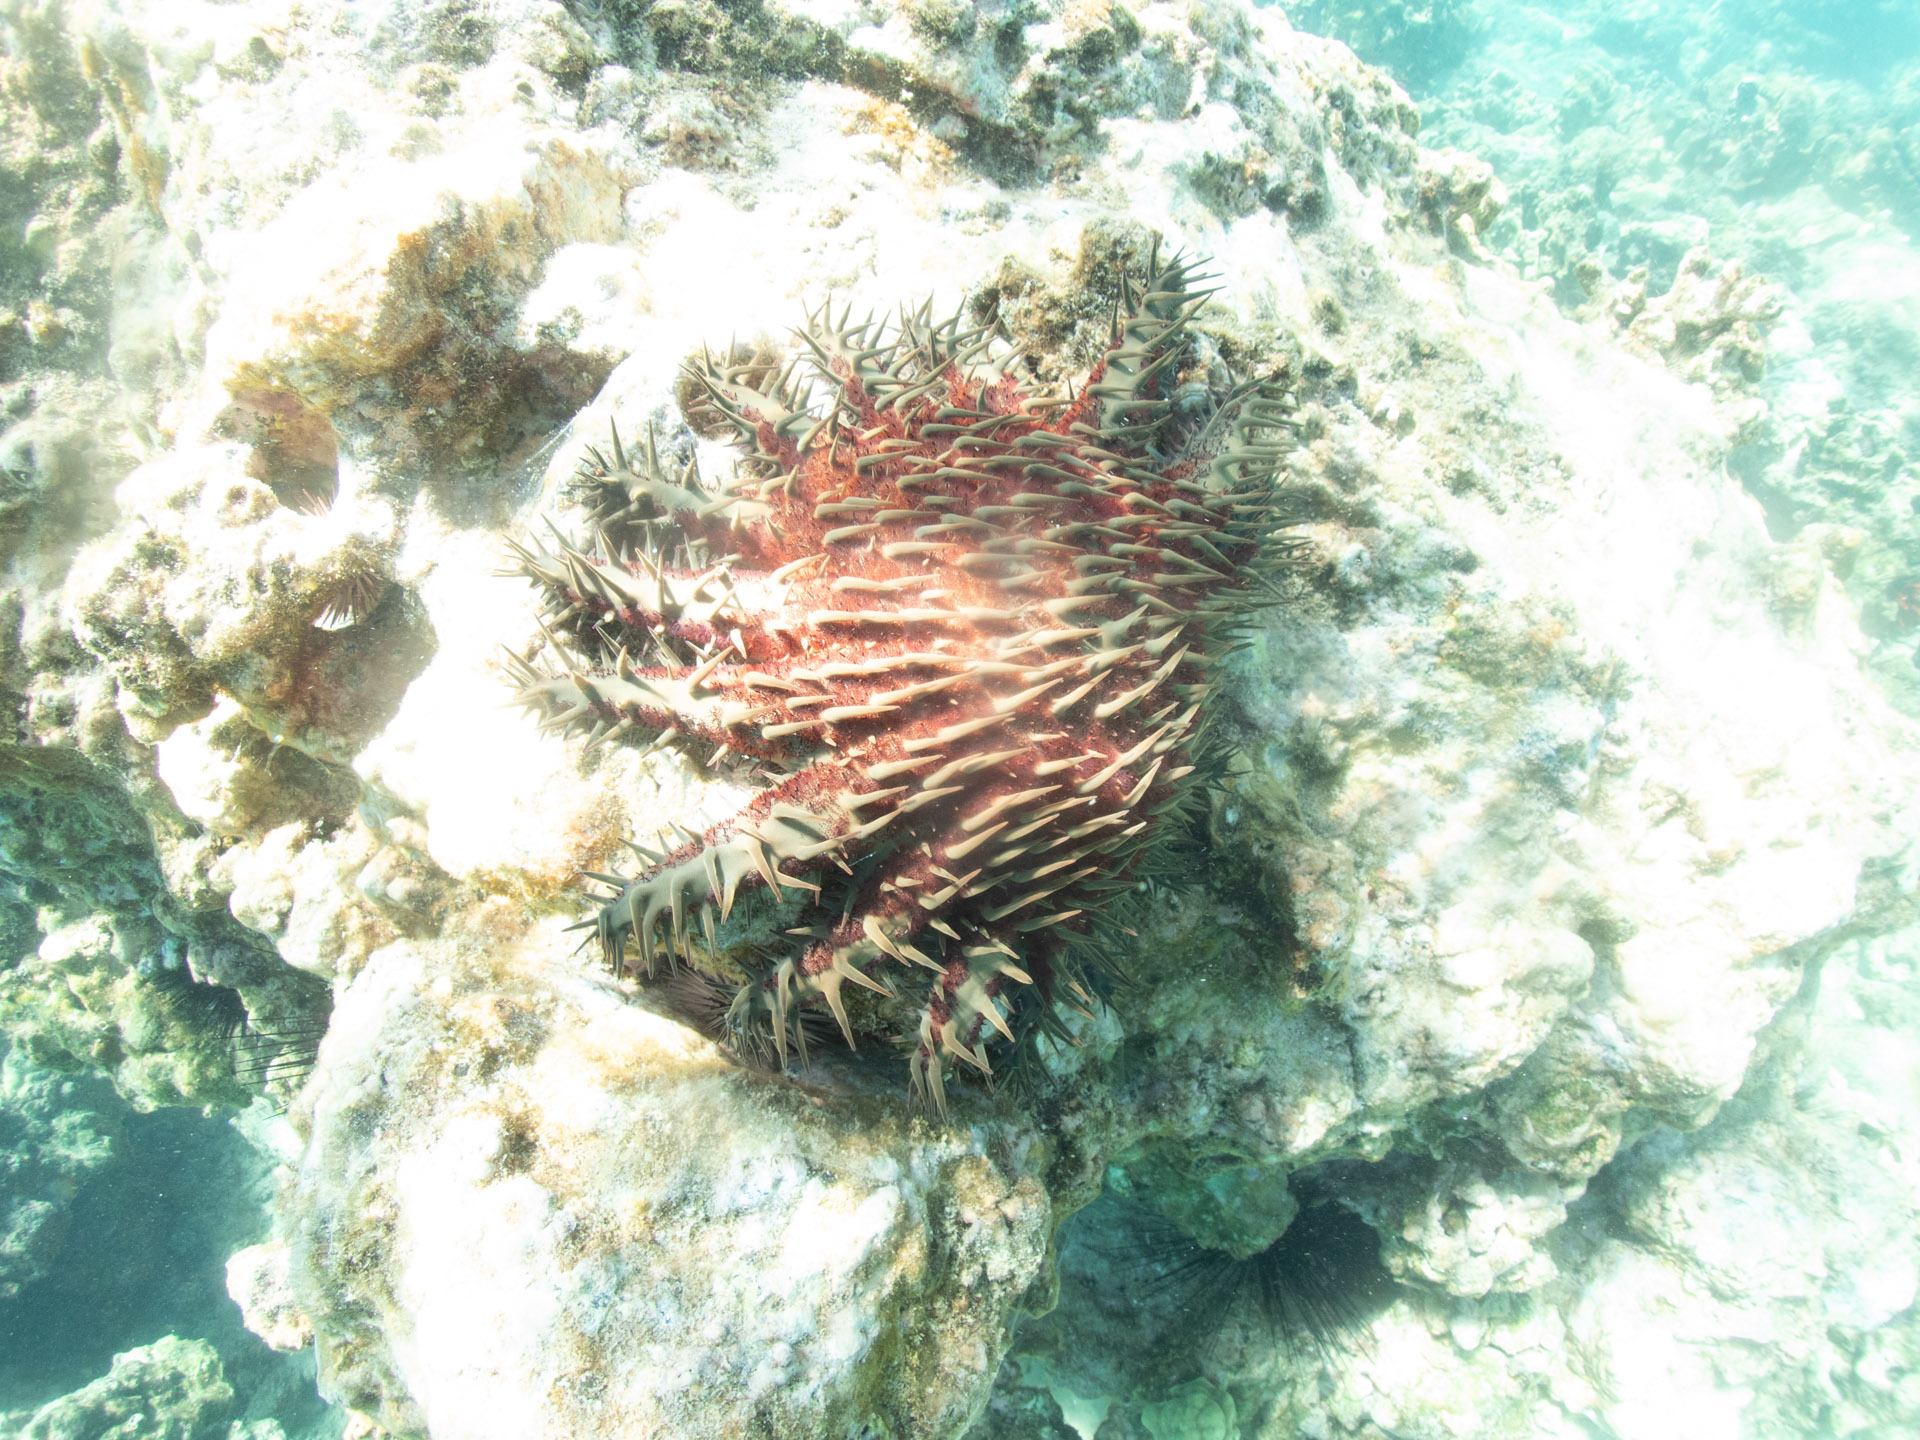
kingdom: Animalia
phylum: Echinodermata
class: Asteroidea
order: Valvatida
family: Acanthasteridae
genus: Acanthaster
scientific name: Acanthaster planci
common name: Crown-of-thorns
